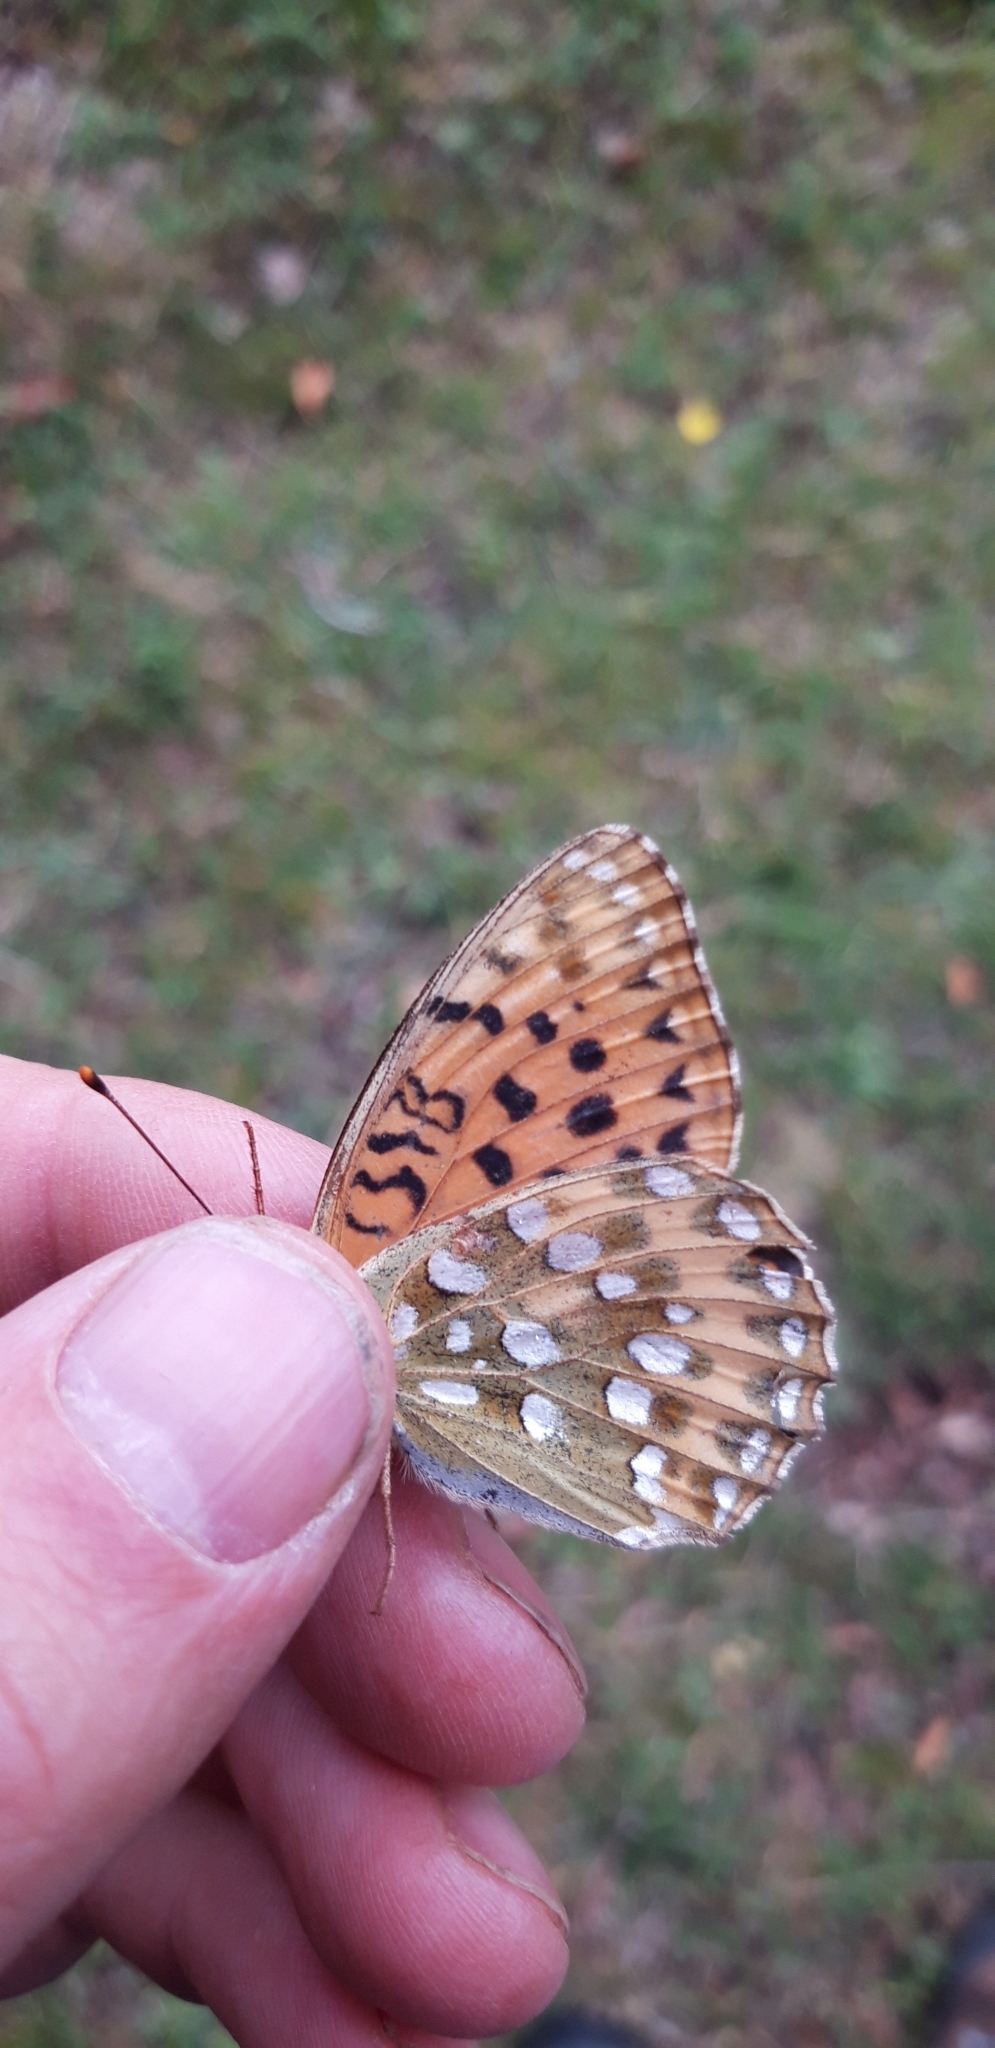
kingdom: Animalia
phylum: Arthropoda
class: Insecta
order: Lepidoptera
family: Nymphalidae
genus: Speyeria
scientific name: Speyeria aglaja
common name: Dark green fritillary
